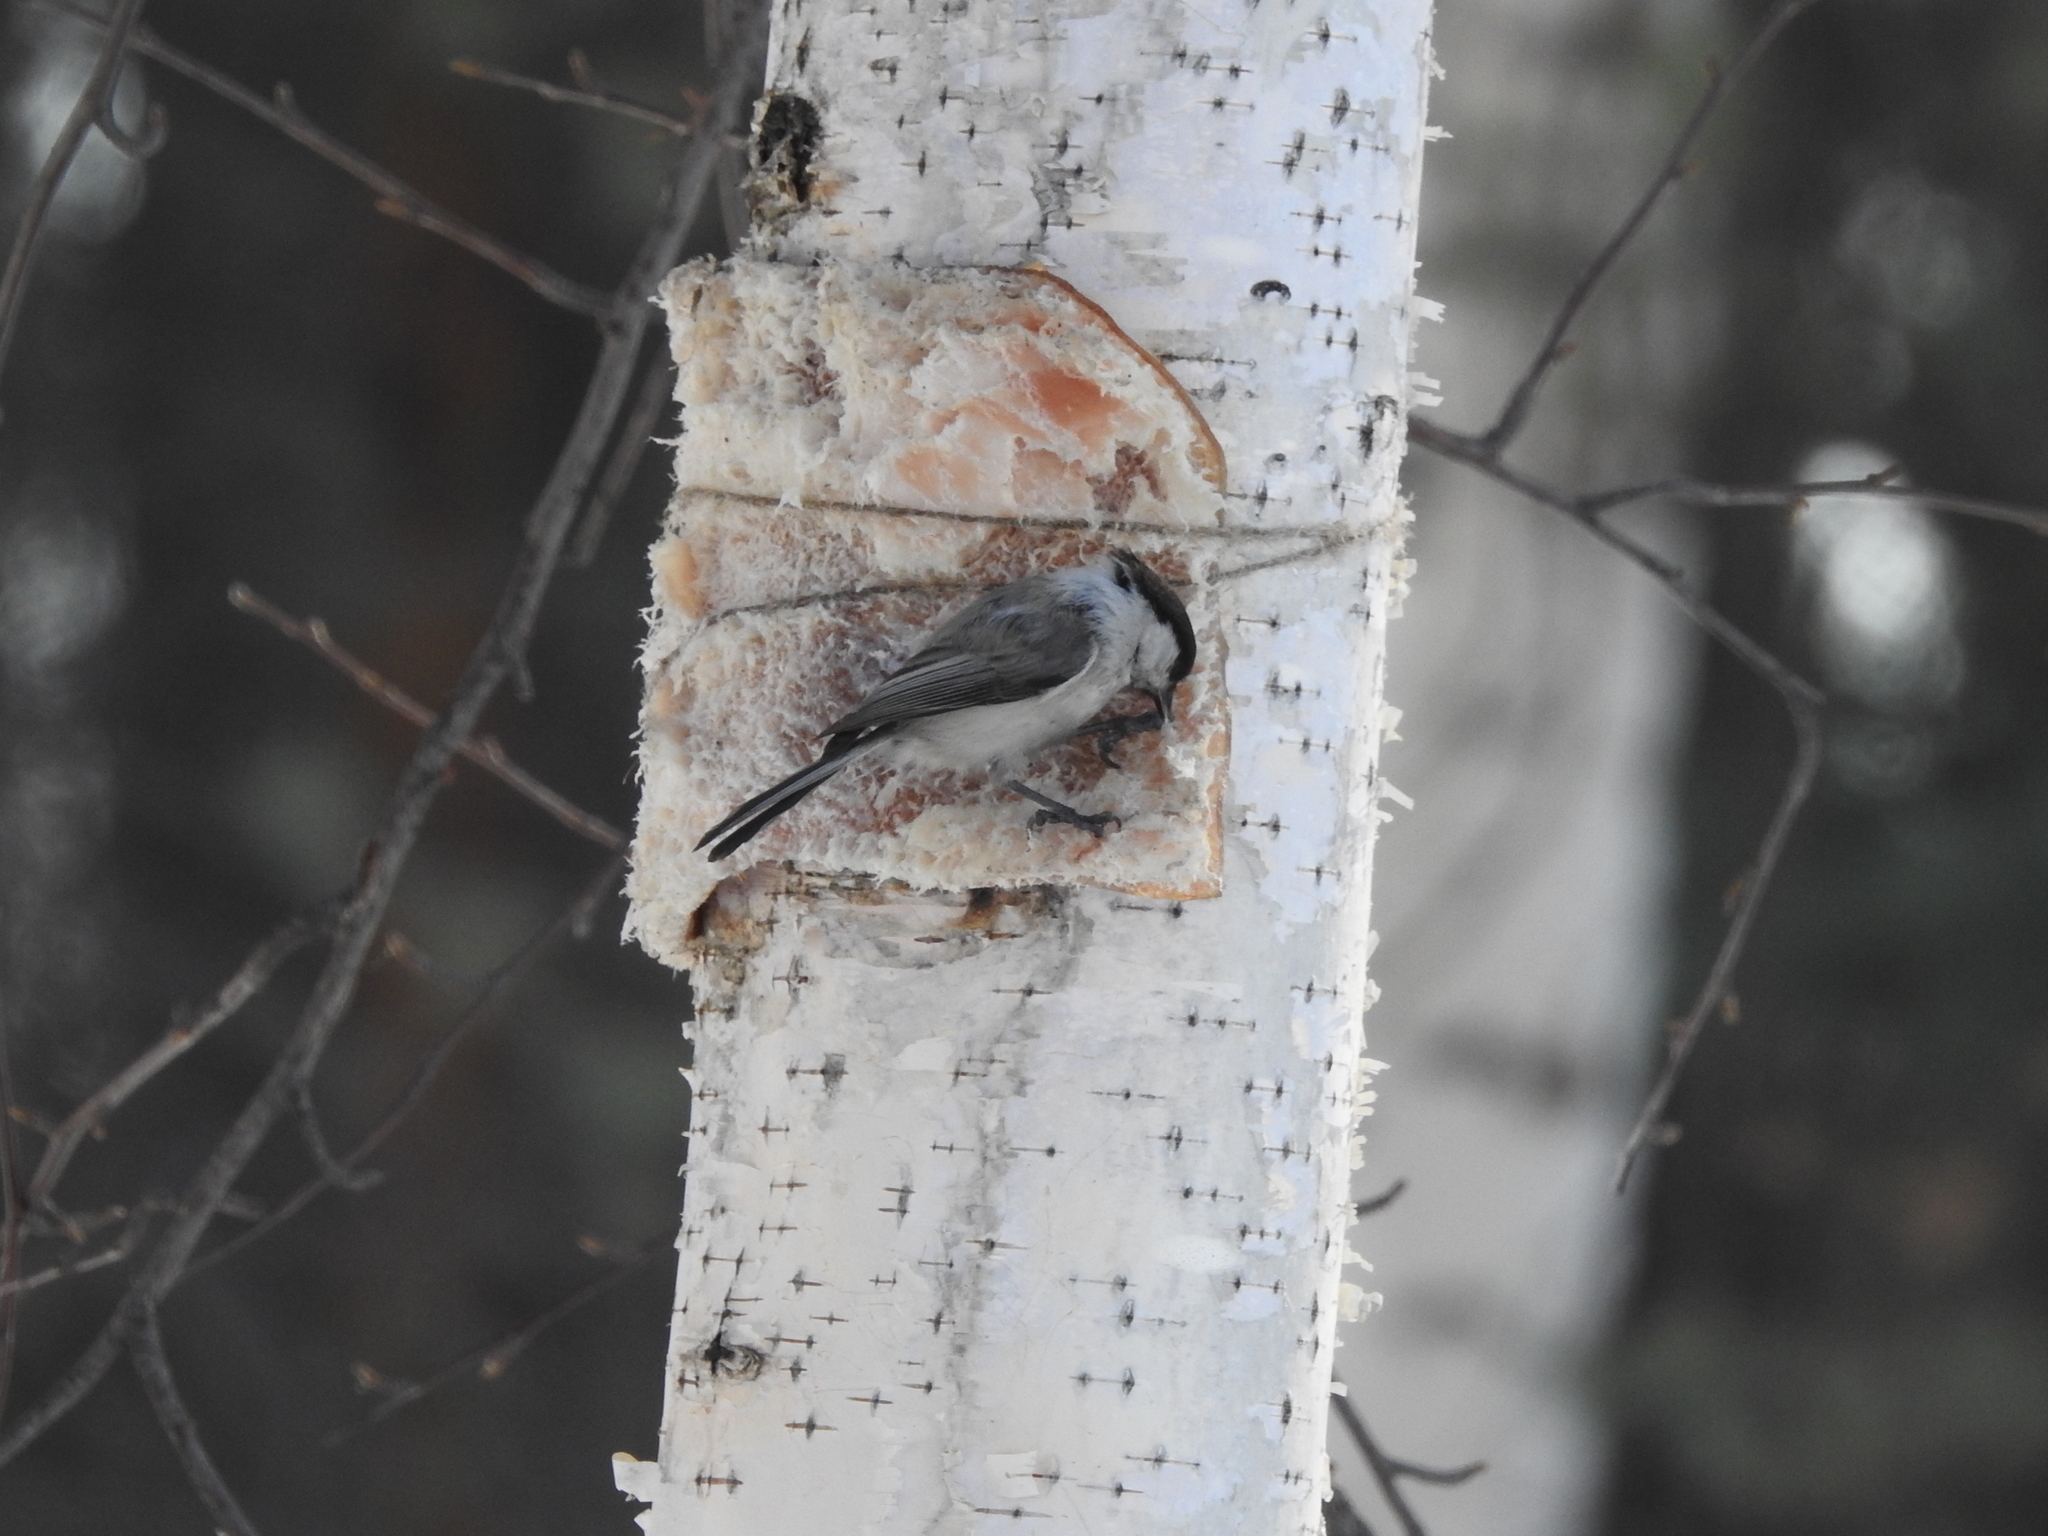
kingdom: Animalia
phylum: Chordata
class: Aves
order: Passeriformes
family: Paridae
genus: Poecile
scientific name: Poecile montanus
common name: Willow tit
